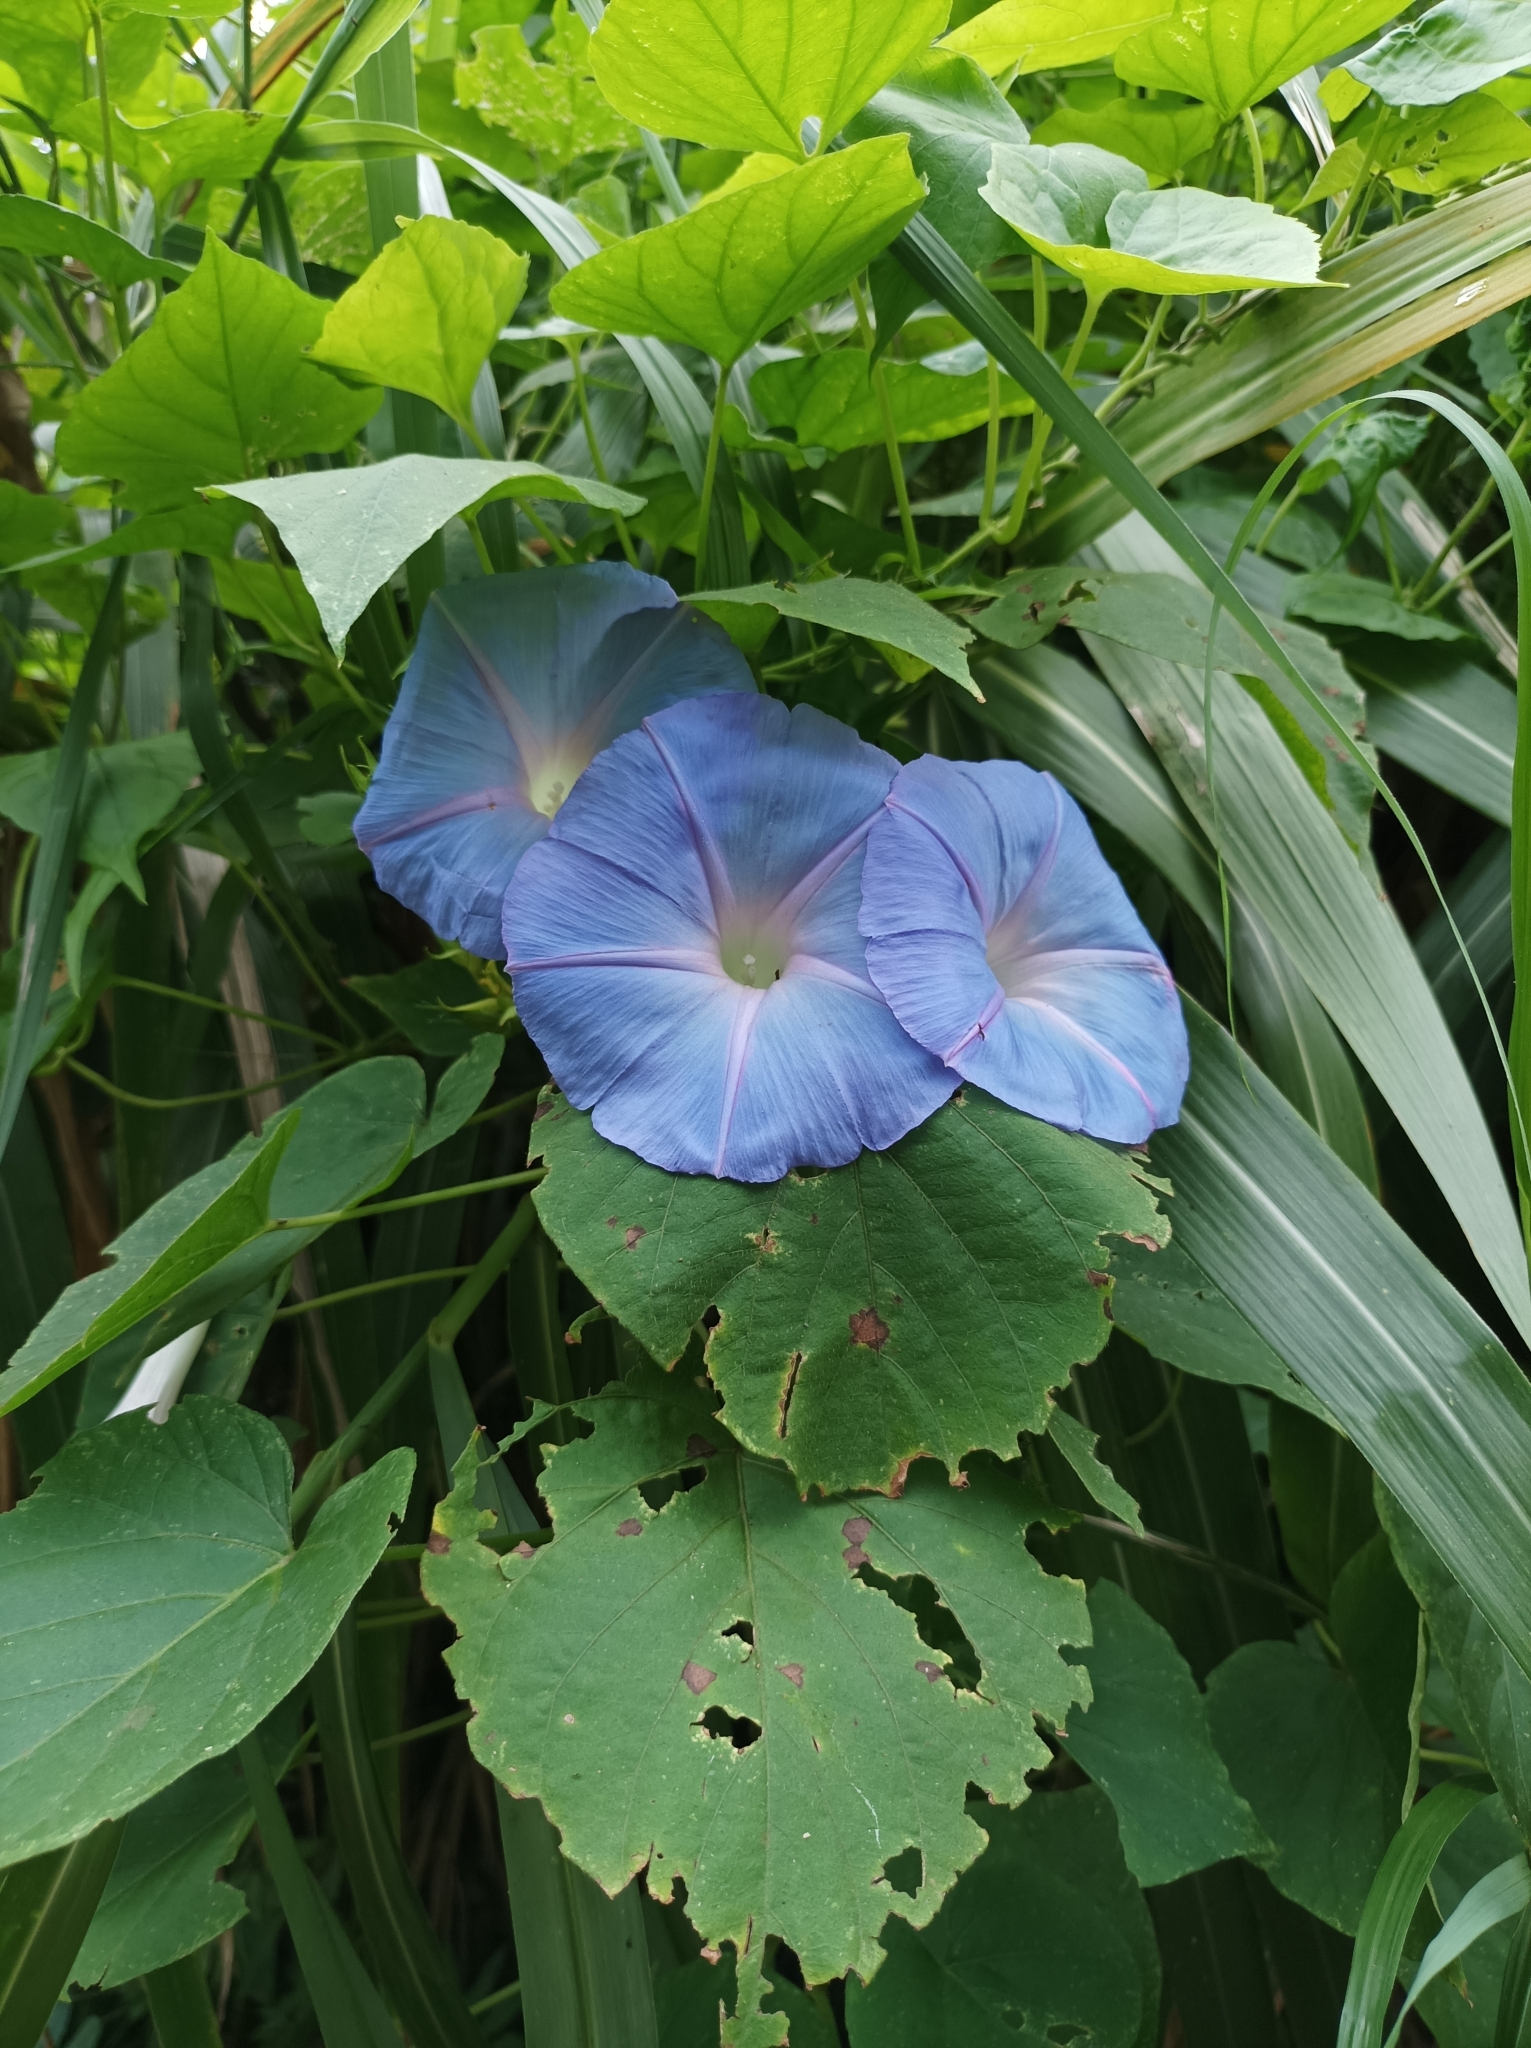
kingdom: Plantae
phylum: Tracheophyta
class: Magnoliopsida
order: Solanales
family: Convolvulaceae
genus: Ipomoea
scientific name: Ipomoea indica
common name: Blue dawnflower
